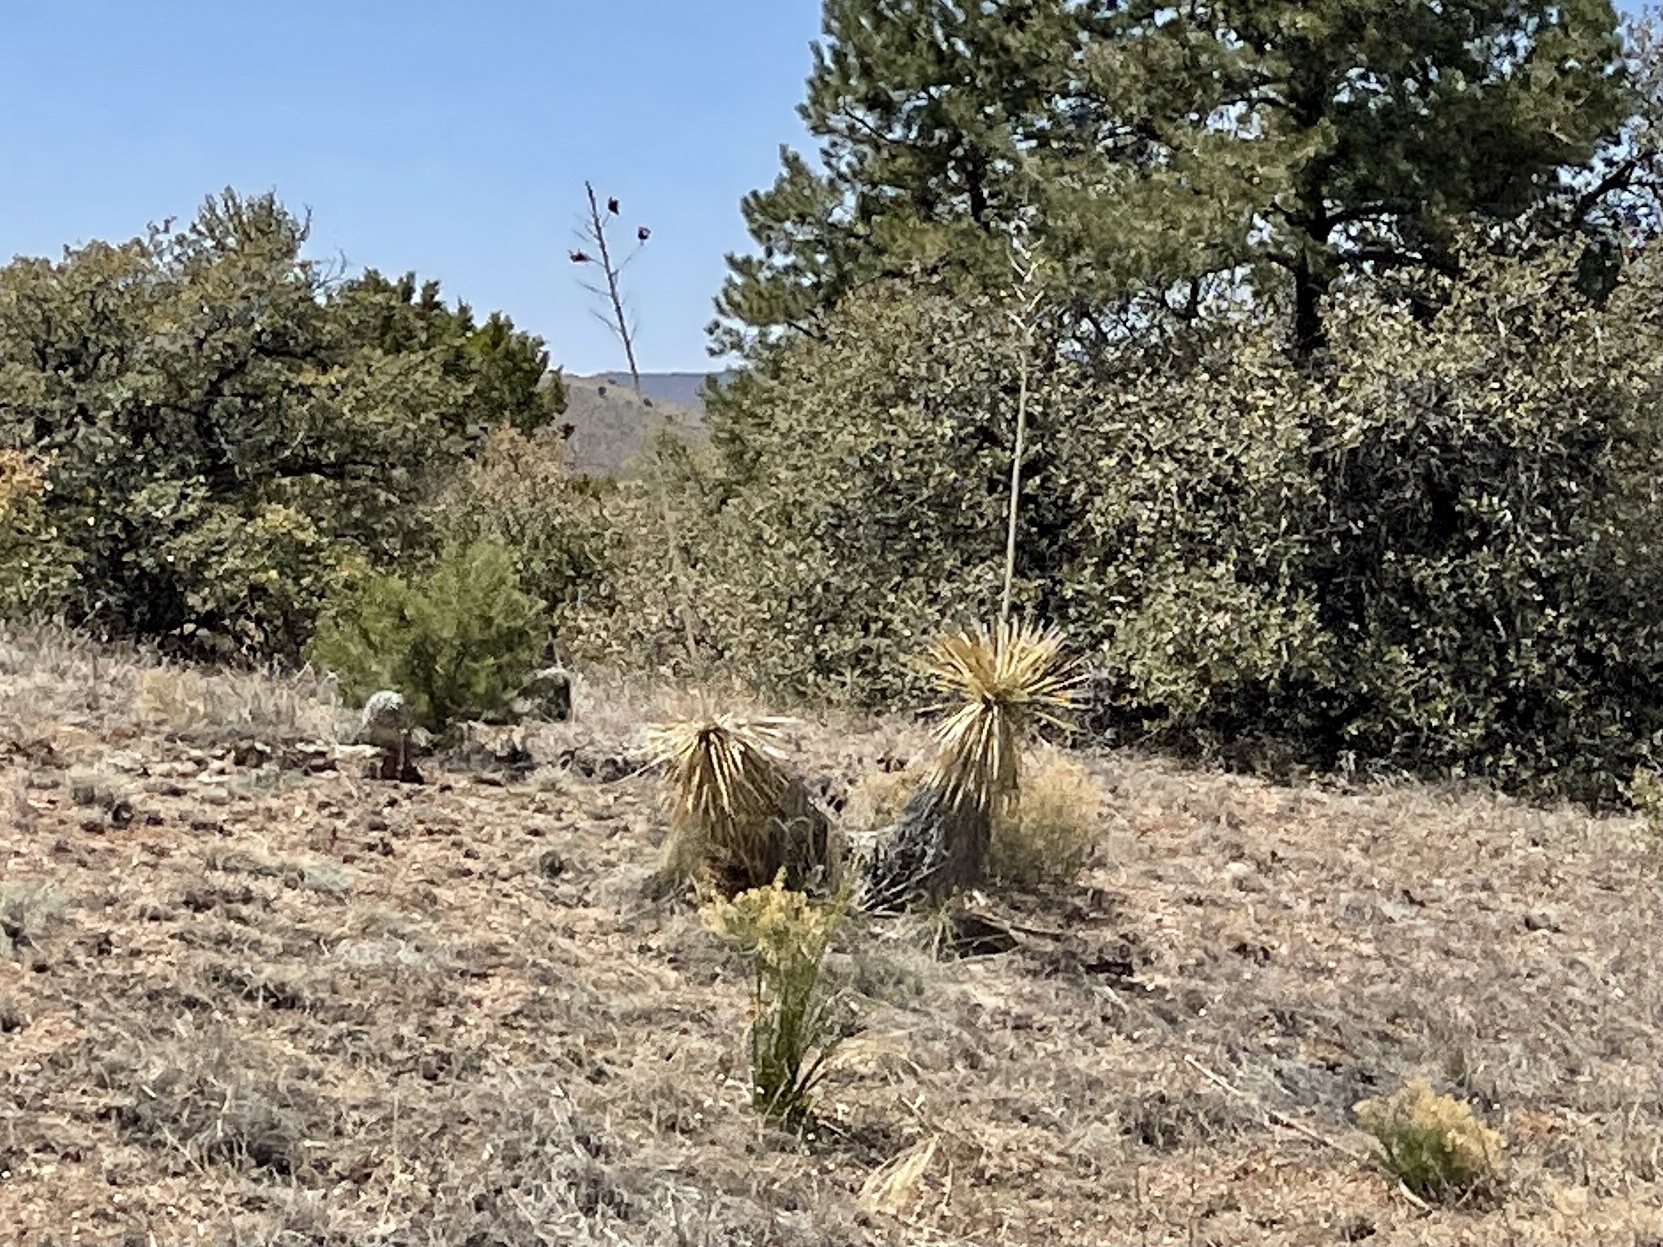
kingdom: Plantae
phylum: Tracheophyta
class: Liliopsida
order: Asparagales
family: Asparagaceae
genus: Yucca
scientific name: Yucca elata
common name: Palmella
